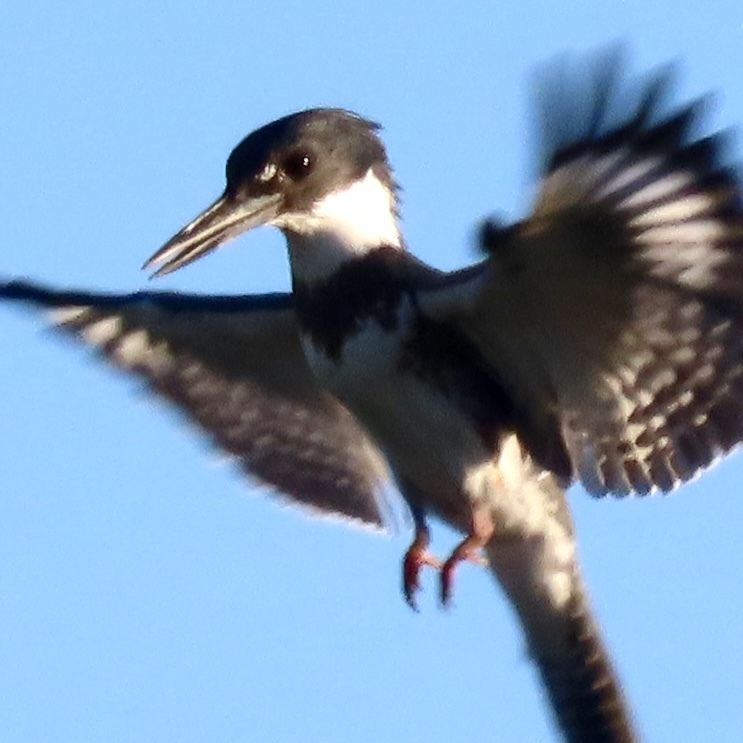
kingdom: Animalia
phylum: Chordata
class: Aves
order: Coraciiformes
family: Alcedinidae
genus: Megaceryle
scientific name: Megaceryle alcyon
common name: Belted kingfisher
